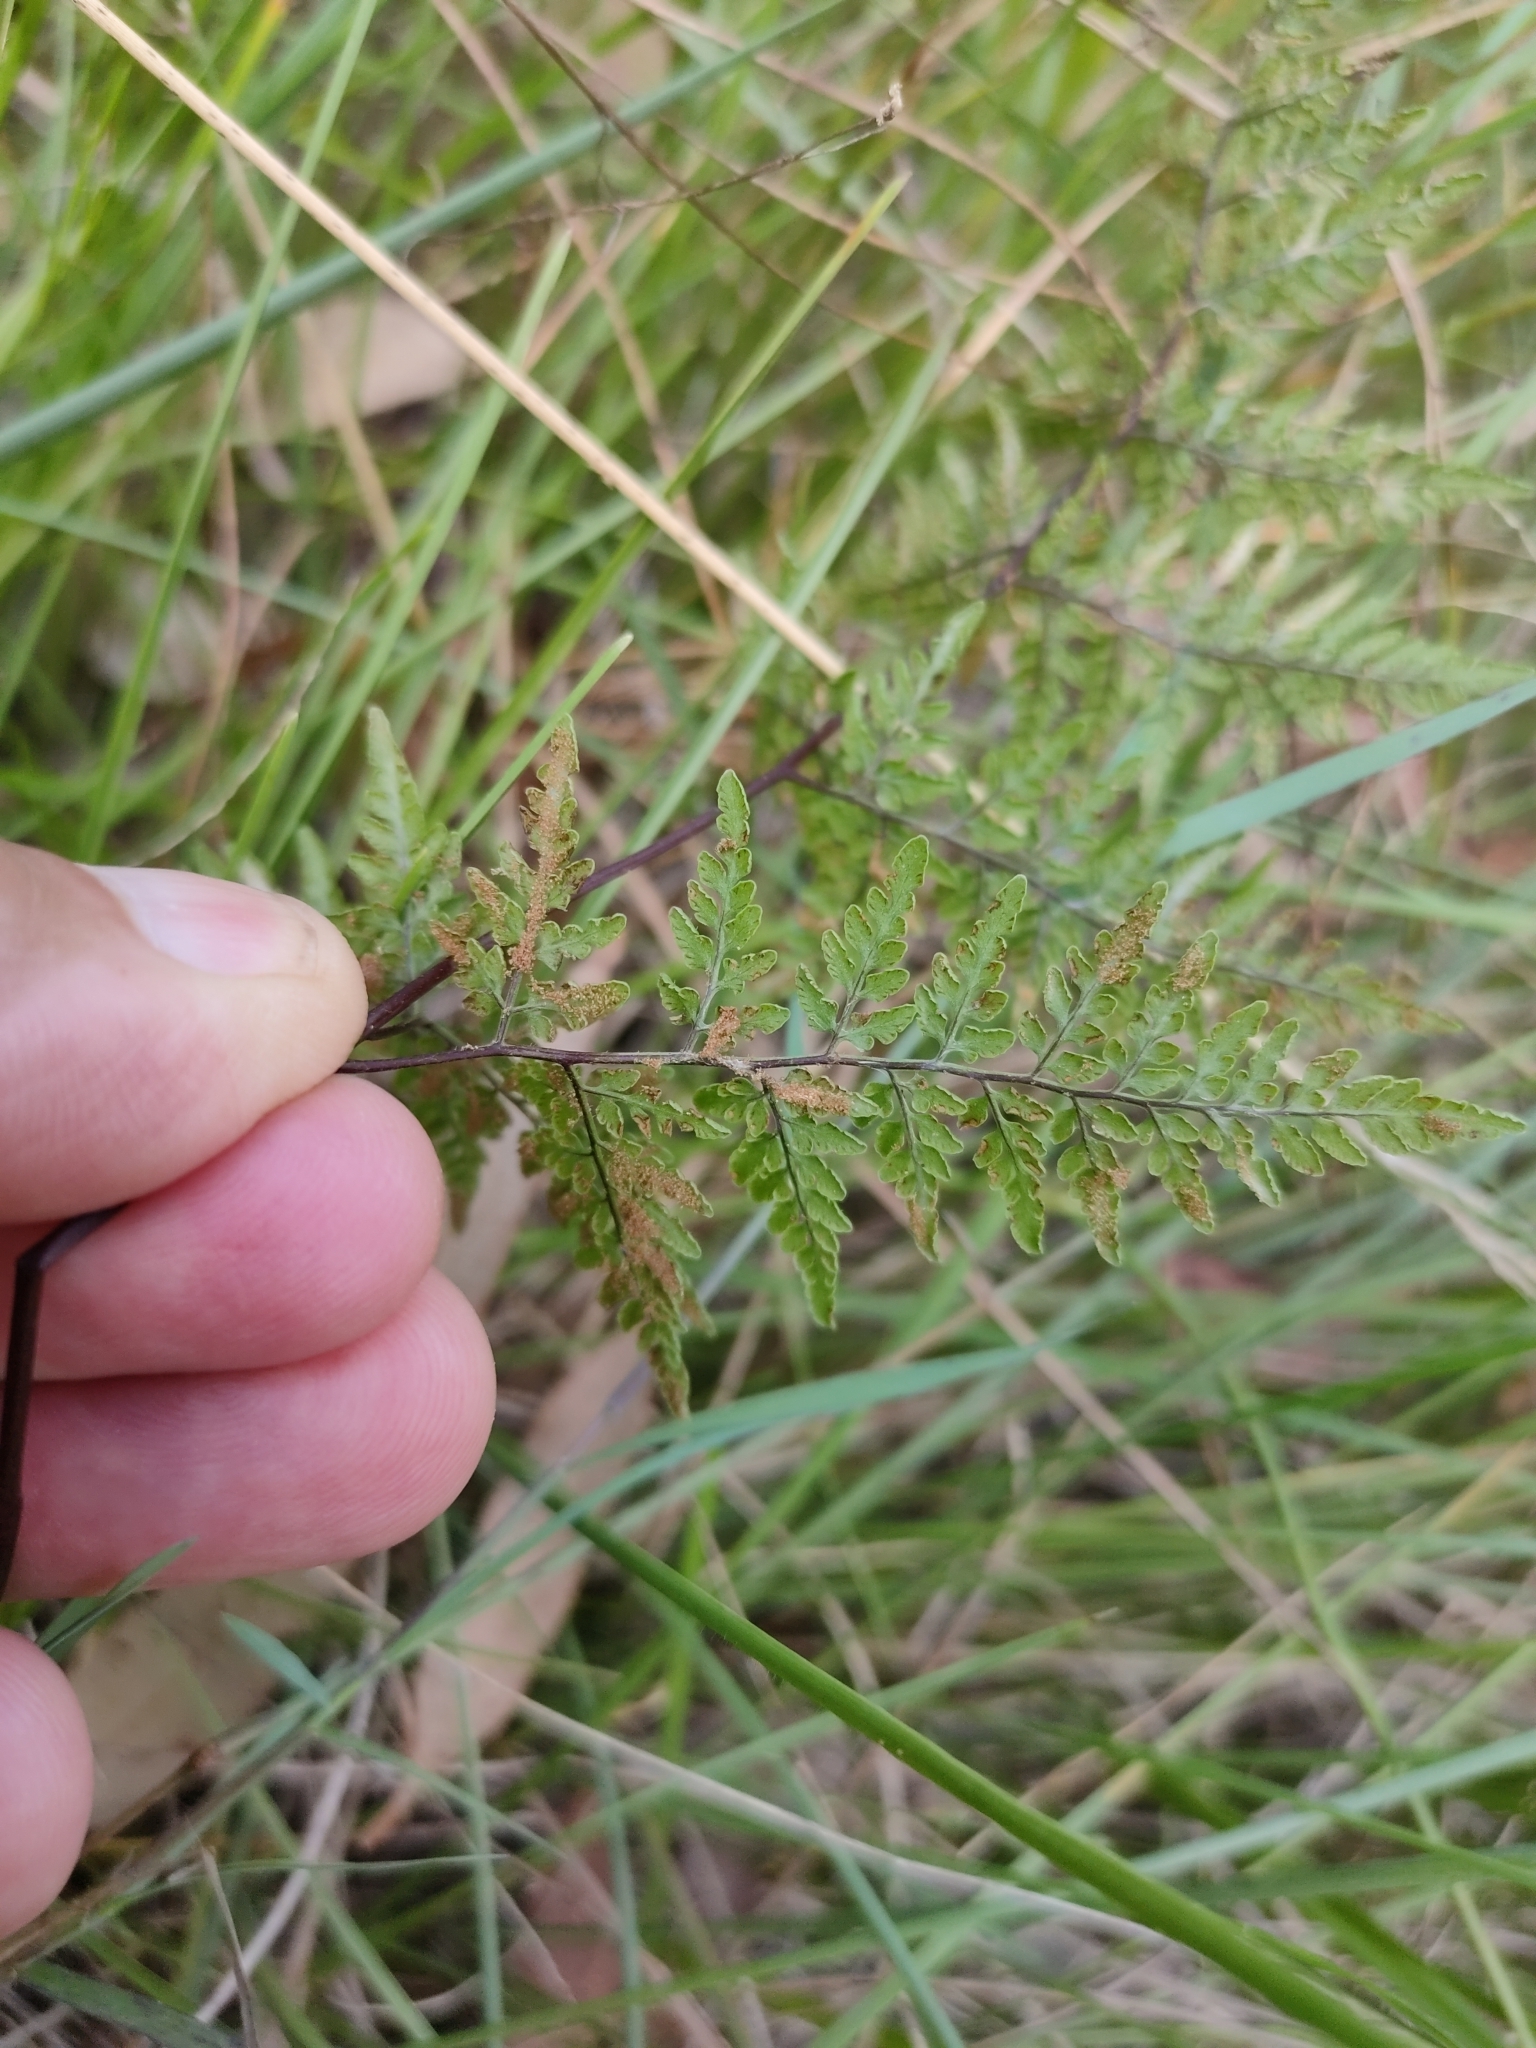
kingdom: Plantae
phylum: Tracheophyta
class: Polypodiopsida
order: Polypodiales
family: Pteridaceae
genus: Cheilanthes
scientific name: Cheilanthes tenuifolia
